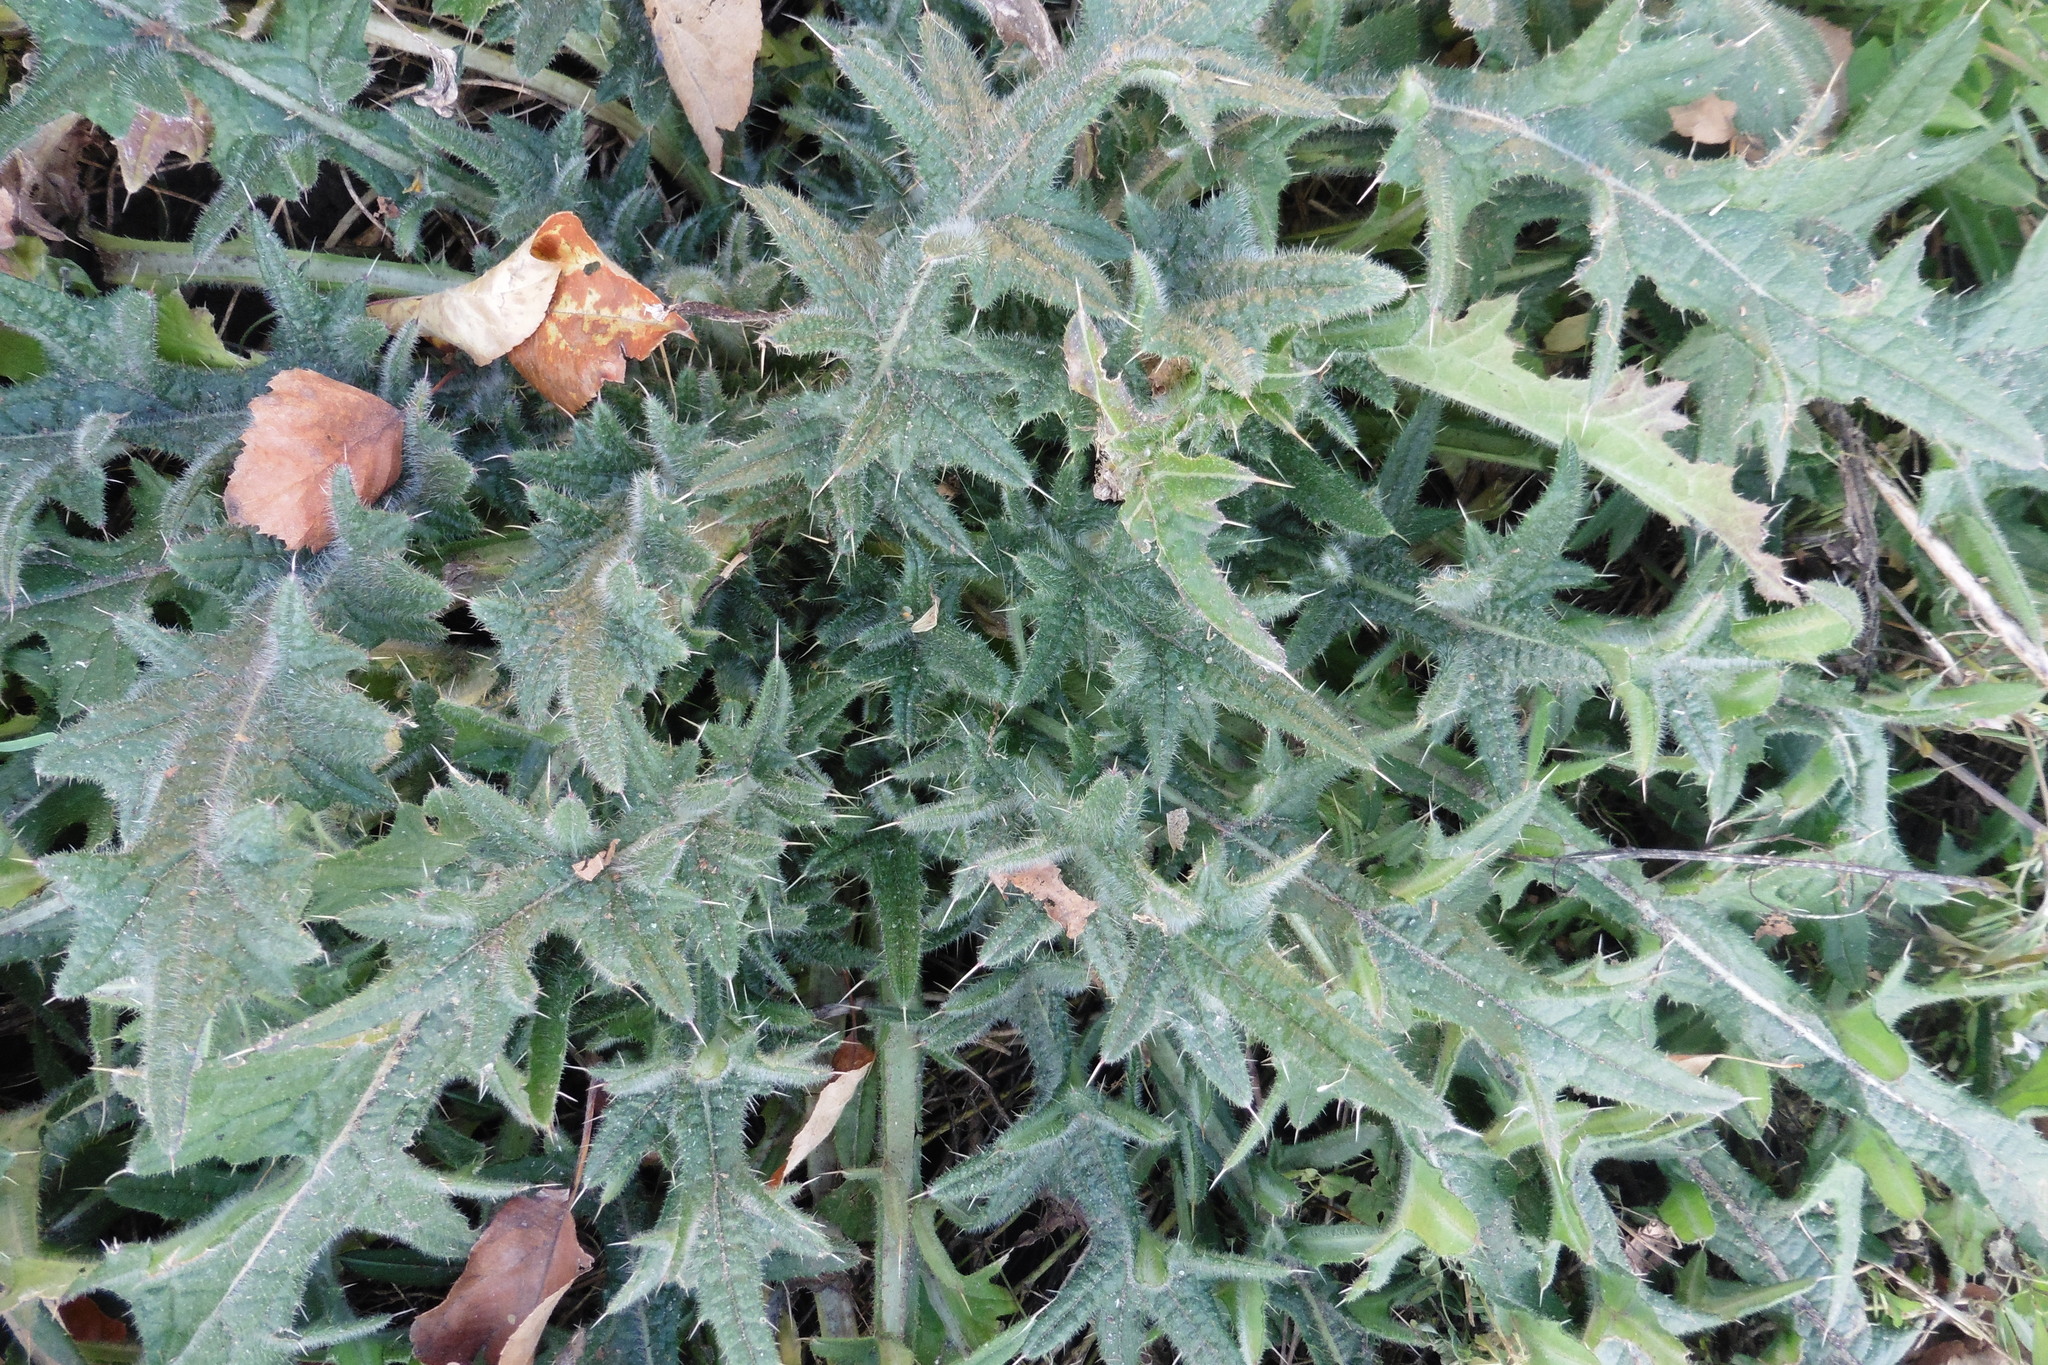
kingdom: Plantae
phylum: Tracheophyta
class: Magnoliopsida
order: Asterales
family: Asteraceae
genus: Cirsium
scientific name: Cirsium vulgare
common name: Bull thistle
